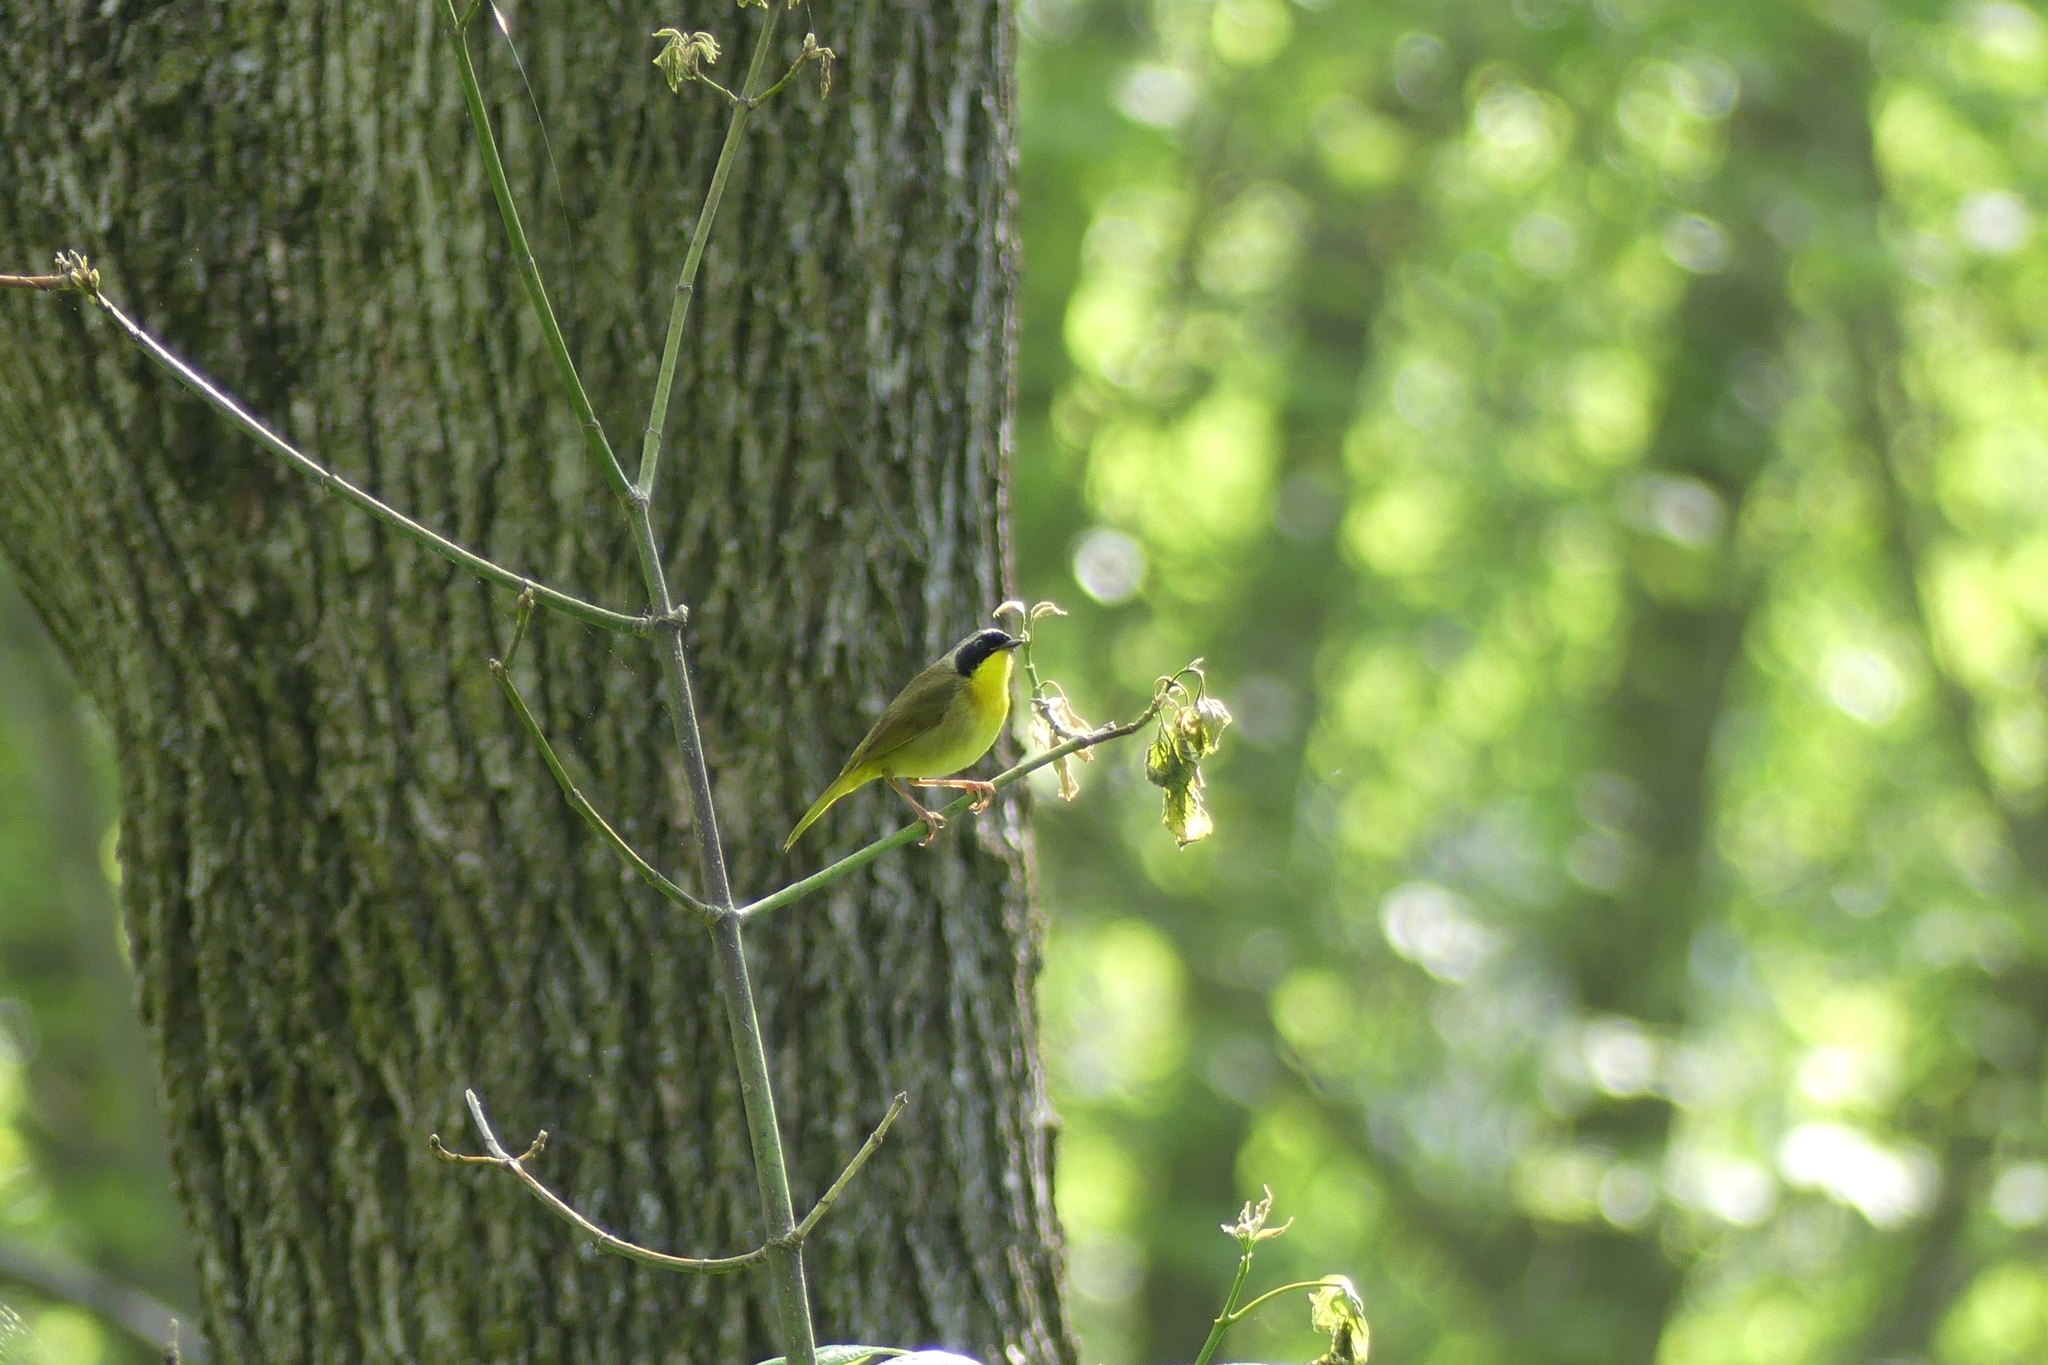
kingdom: Animalia
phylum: Chordata
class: Aves
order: Passeriformes
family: Parulidae
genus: Geothlypis
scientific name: Geothlypis trichas
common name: Common yellowthroat
